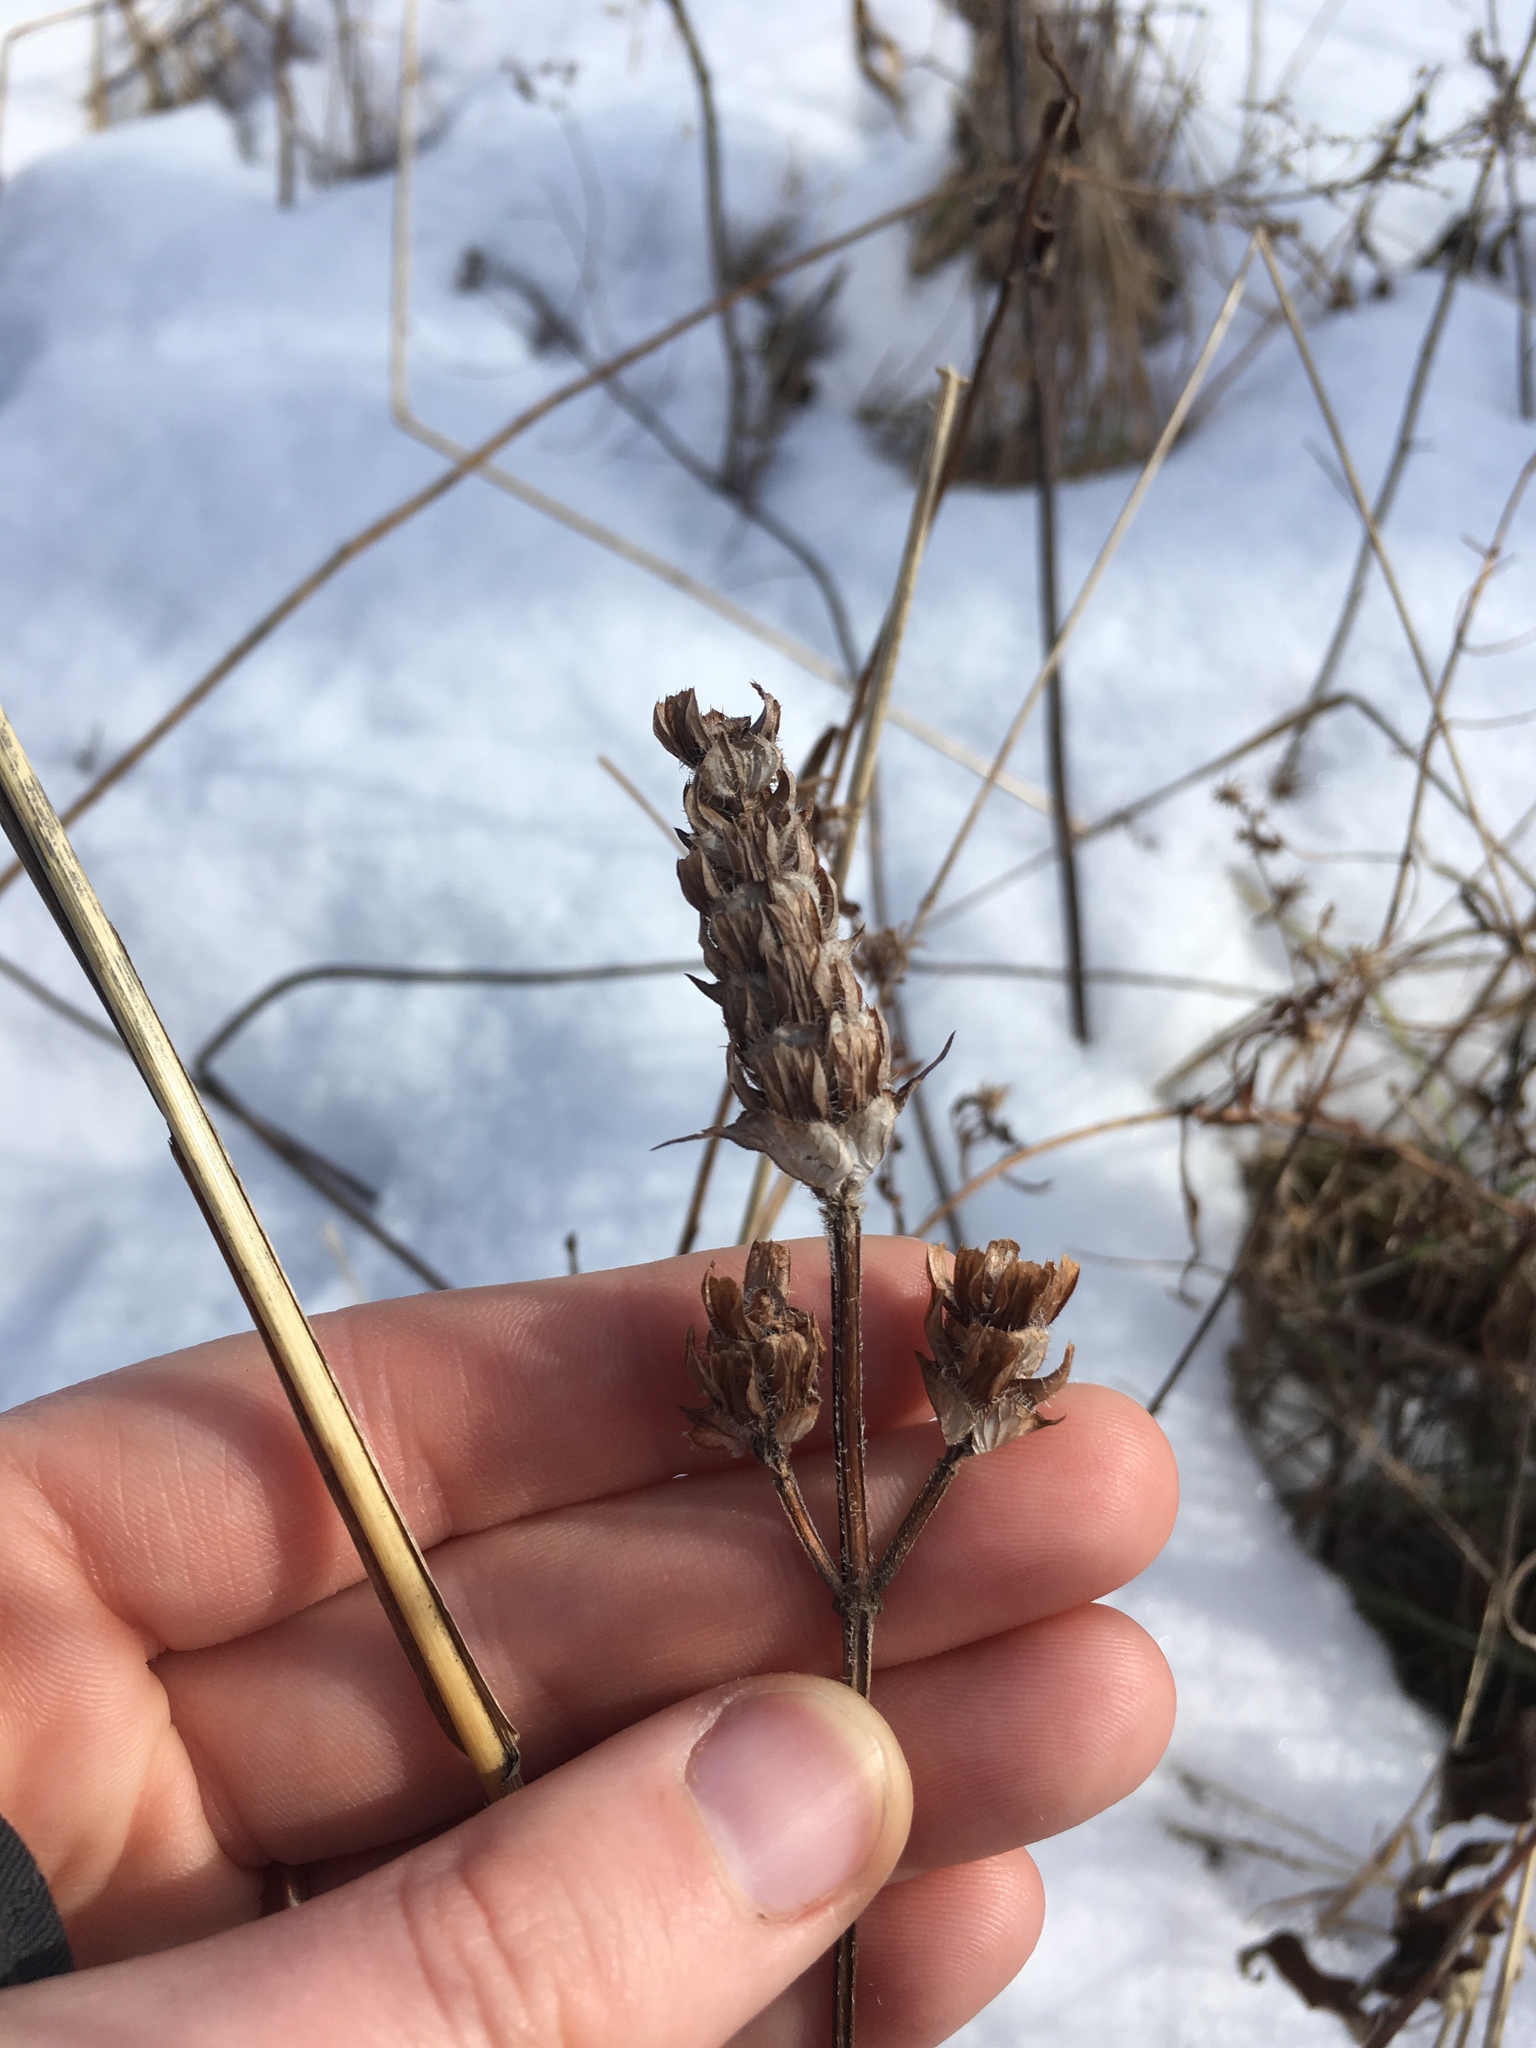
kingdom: Plantae
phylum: Tracheophyta
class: Magnoliopsida
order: Lamiales
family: Lamiaceae
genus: Prunella
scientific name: Prunella vulgaris
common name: Heal-all
